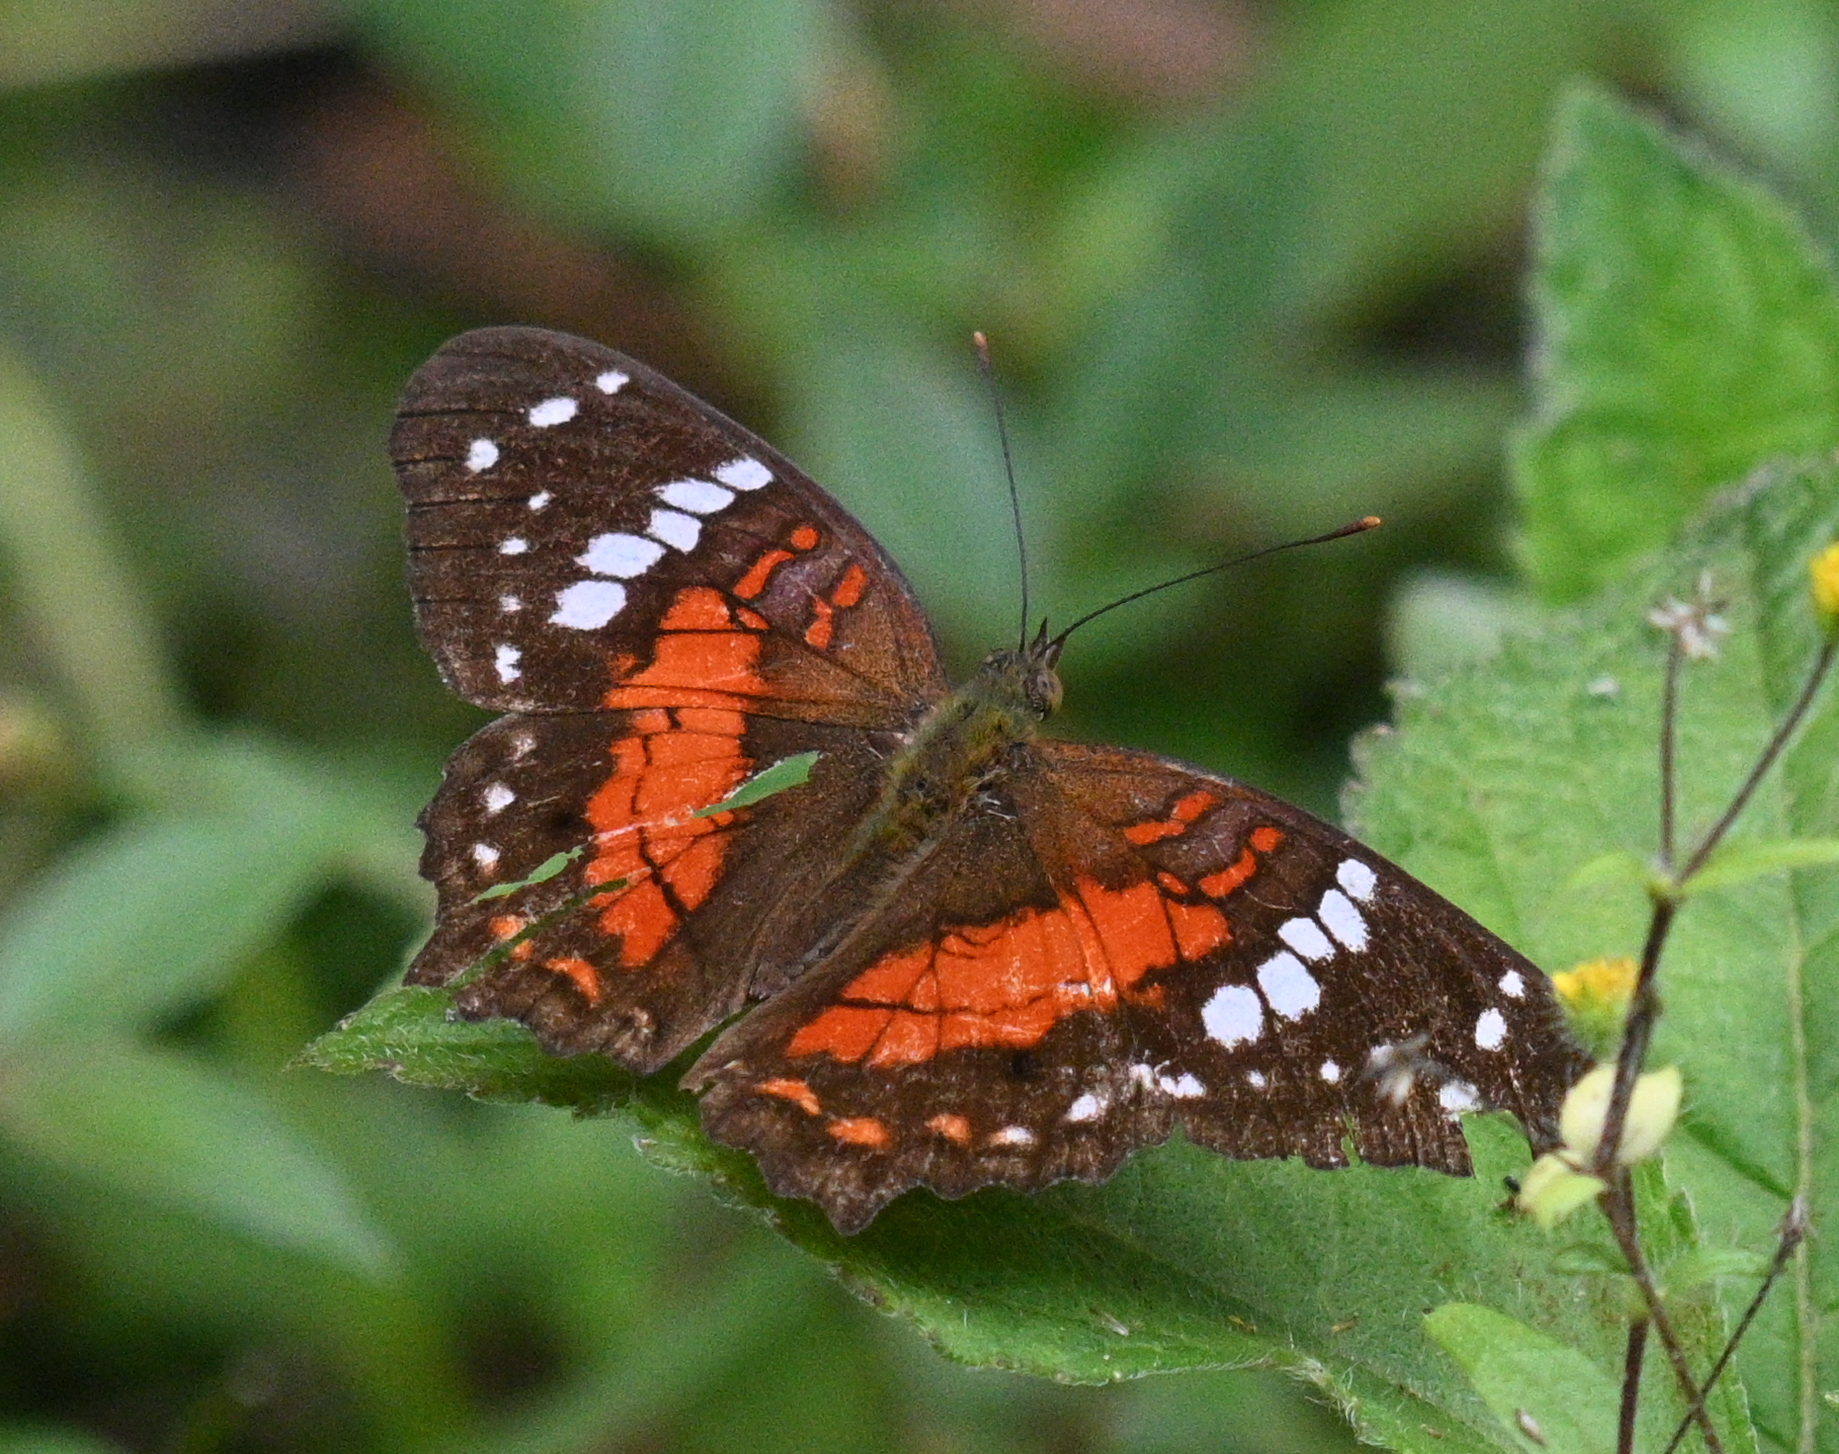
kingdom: Animalia
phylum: Arthropoda
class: Insecta
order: Lepidoptera
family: Nymphalidae
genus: Anartia
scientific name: Anartia amathea
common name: Red peacock
